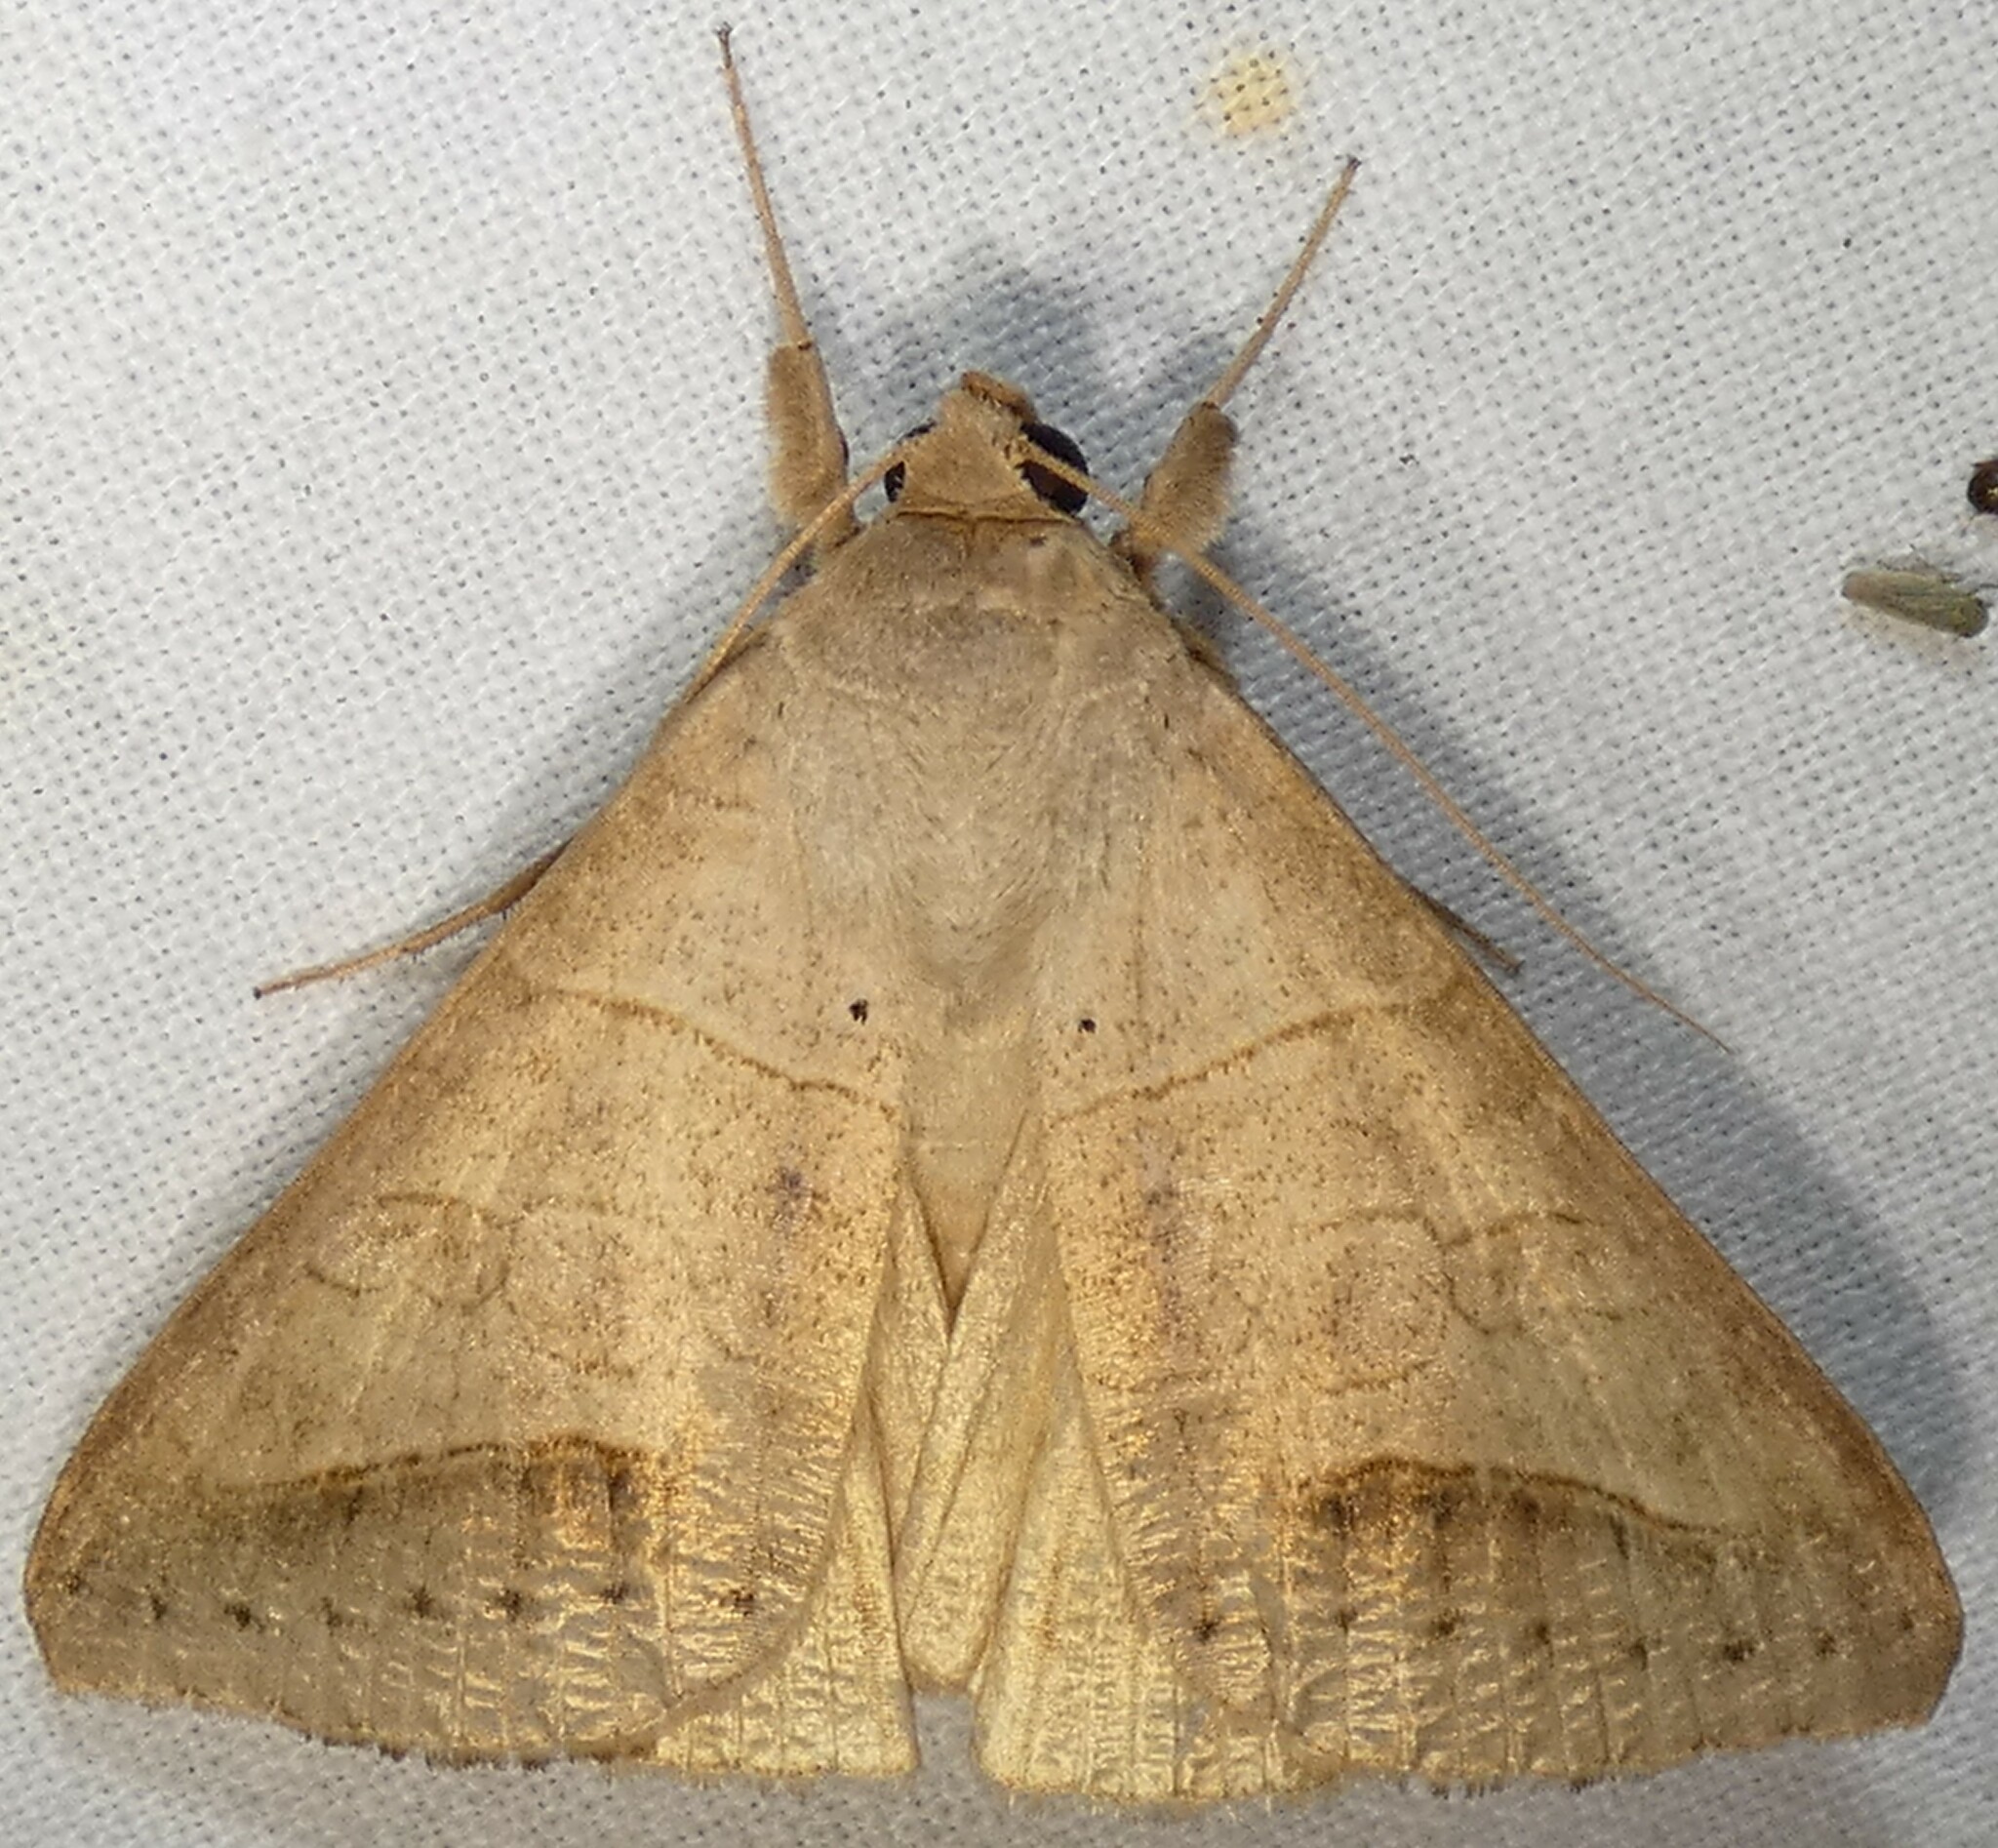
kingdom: Animalia
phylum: Arthropoda
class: Insecta
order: Lepidoptera
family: Erebidae
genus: Mocis
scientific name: Mocis marcida
